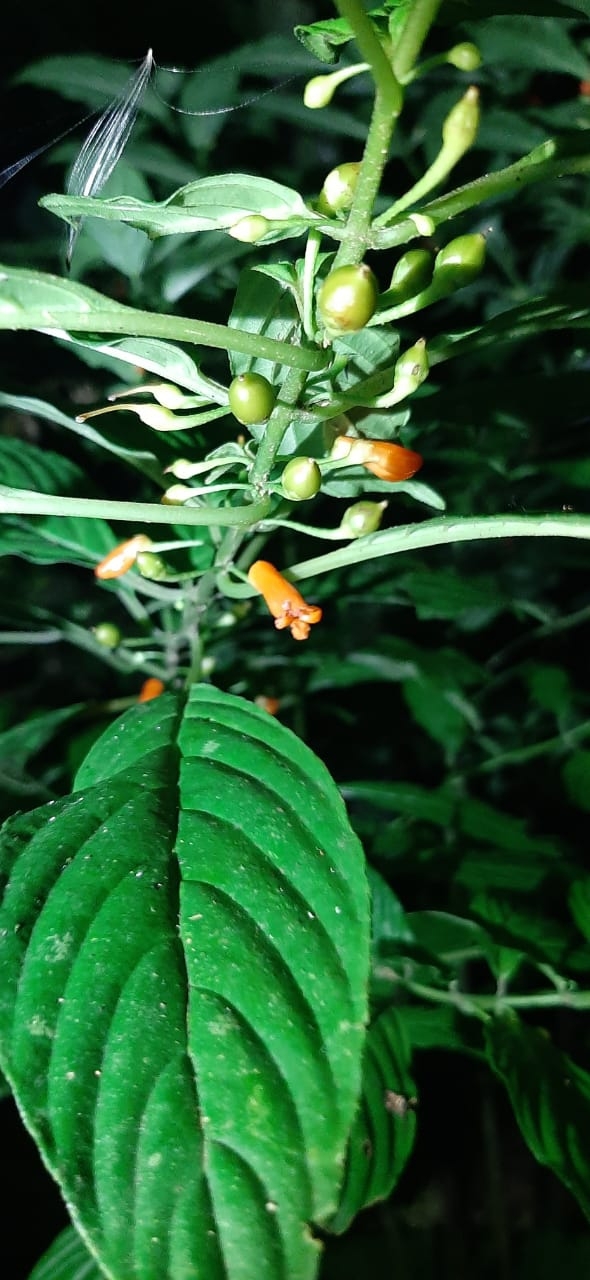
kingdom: Plantae
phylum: Tracheophyta
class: Magnoliopsida
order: Lamiales
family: Gesneriaceae
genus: Besleria
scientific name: Besleria solanoides
